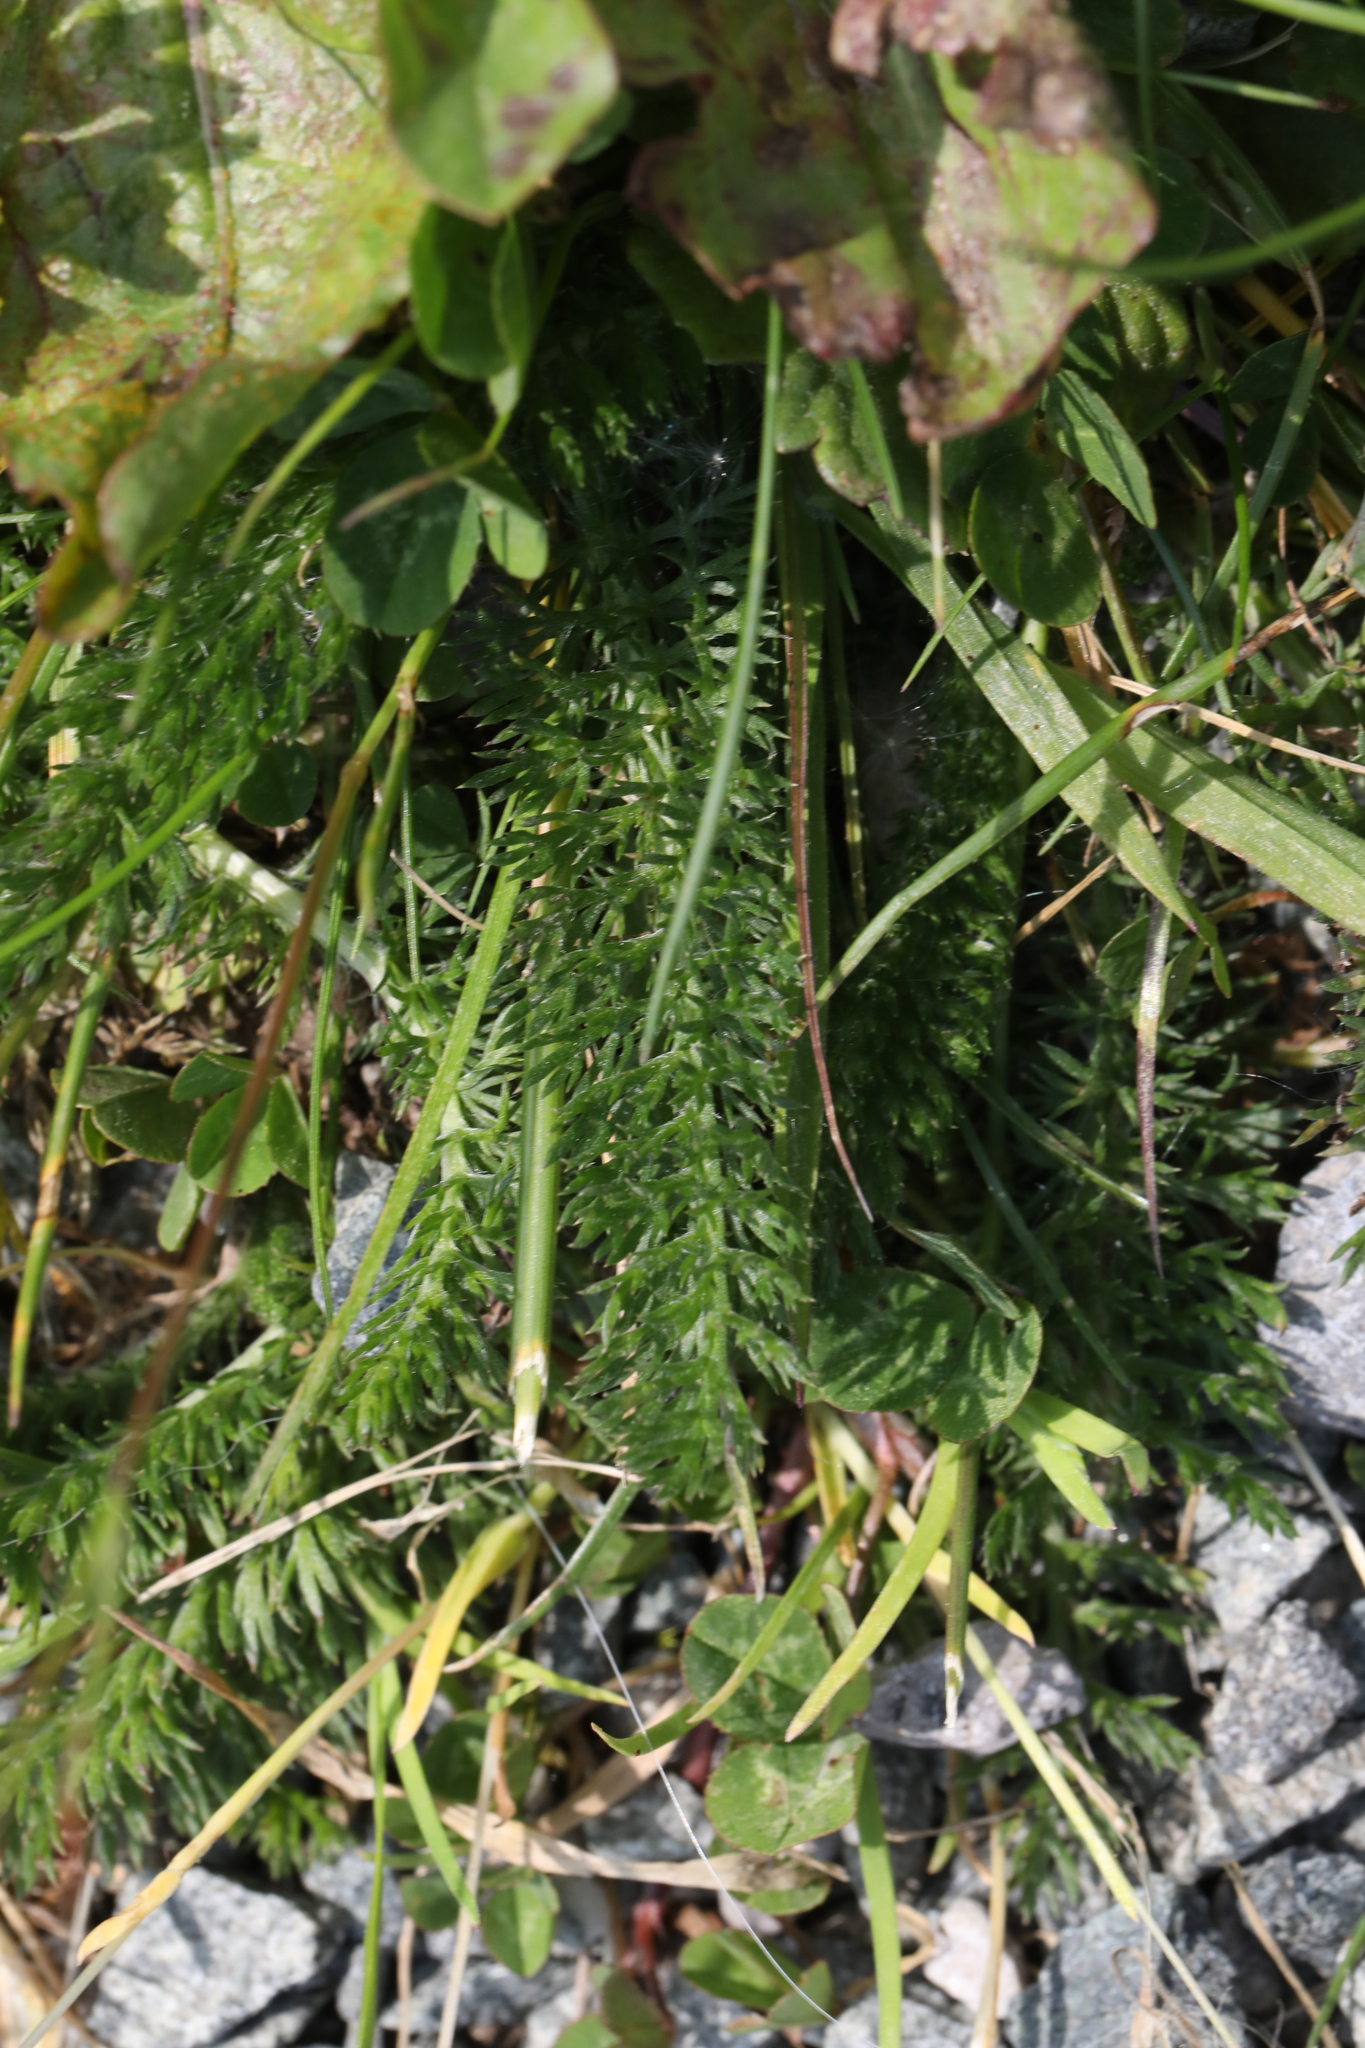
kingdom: Plantae
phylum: Tracheophyta
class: Magnoliopsida
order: Asterales
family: Asteraceae
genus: Achillea
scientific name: Achillea millefolium
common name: Yarrow
